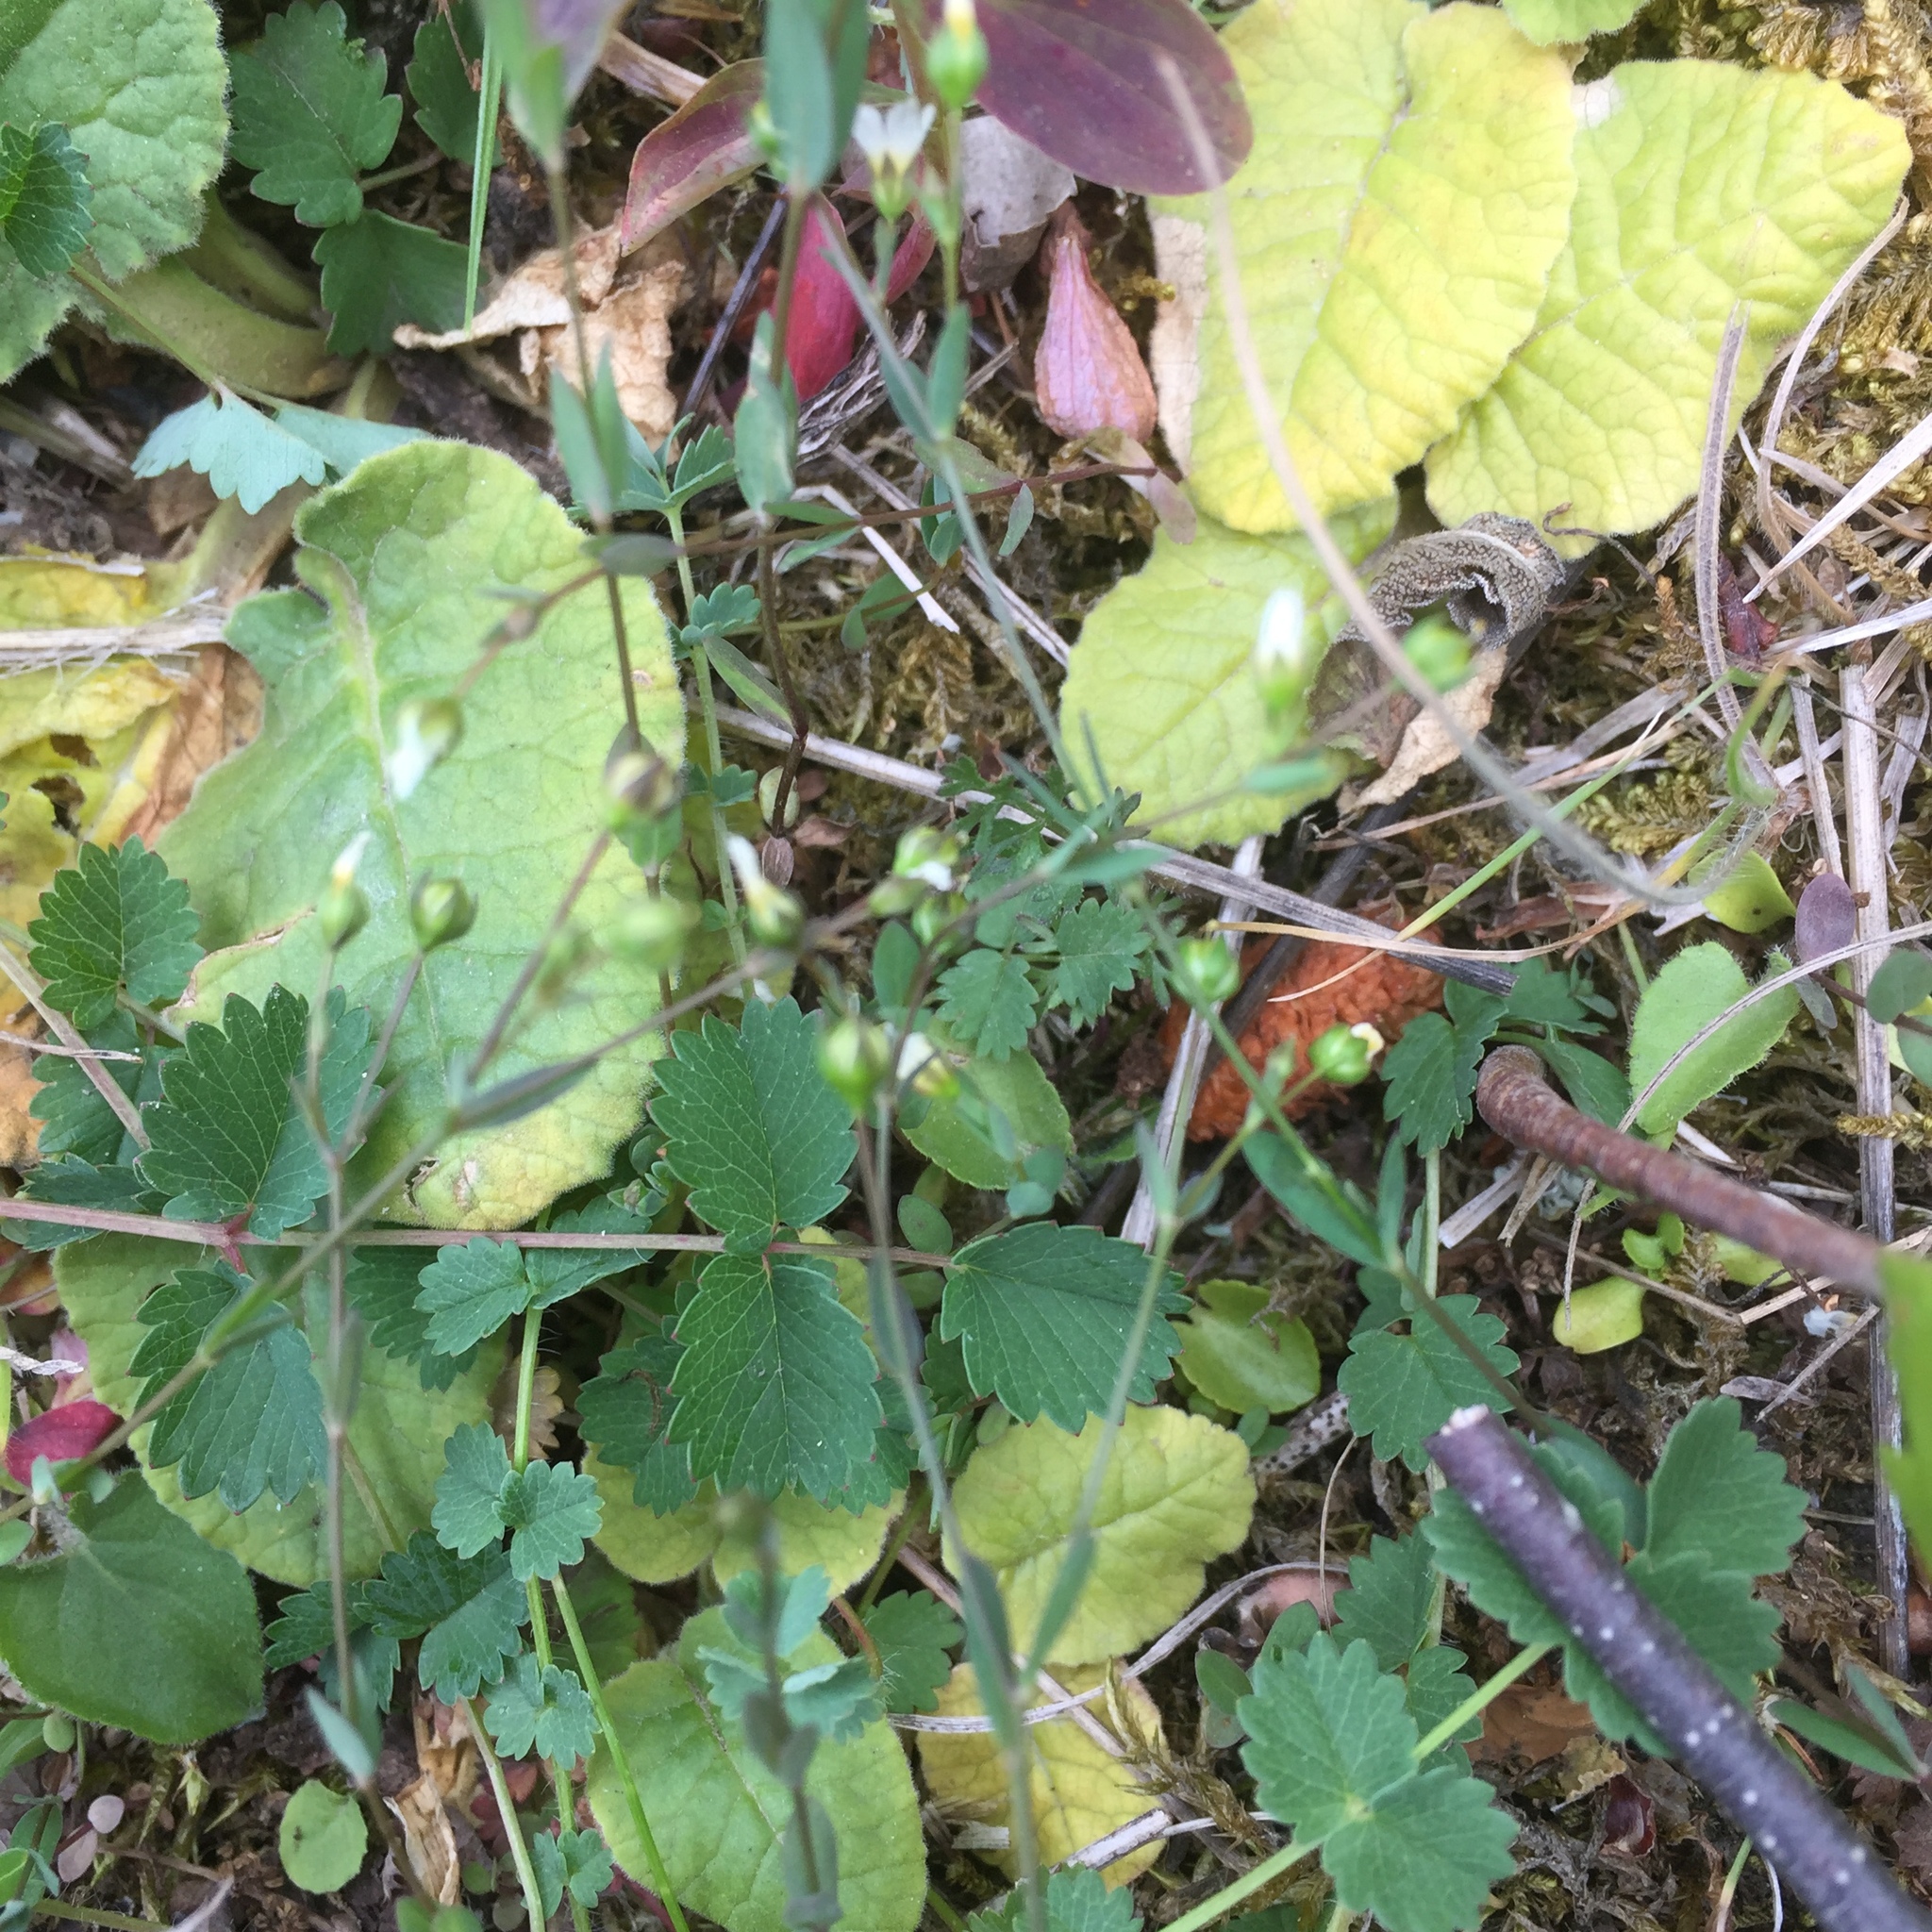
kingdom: Plantae
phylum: Tracheophyta
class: Magnoliopsida
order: Malpighiales
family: Linaceae
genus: Linum
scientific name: Linum catharticum
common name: Fairy flax
